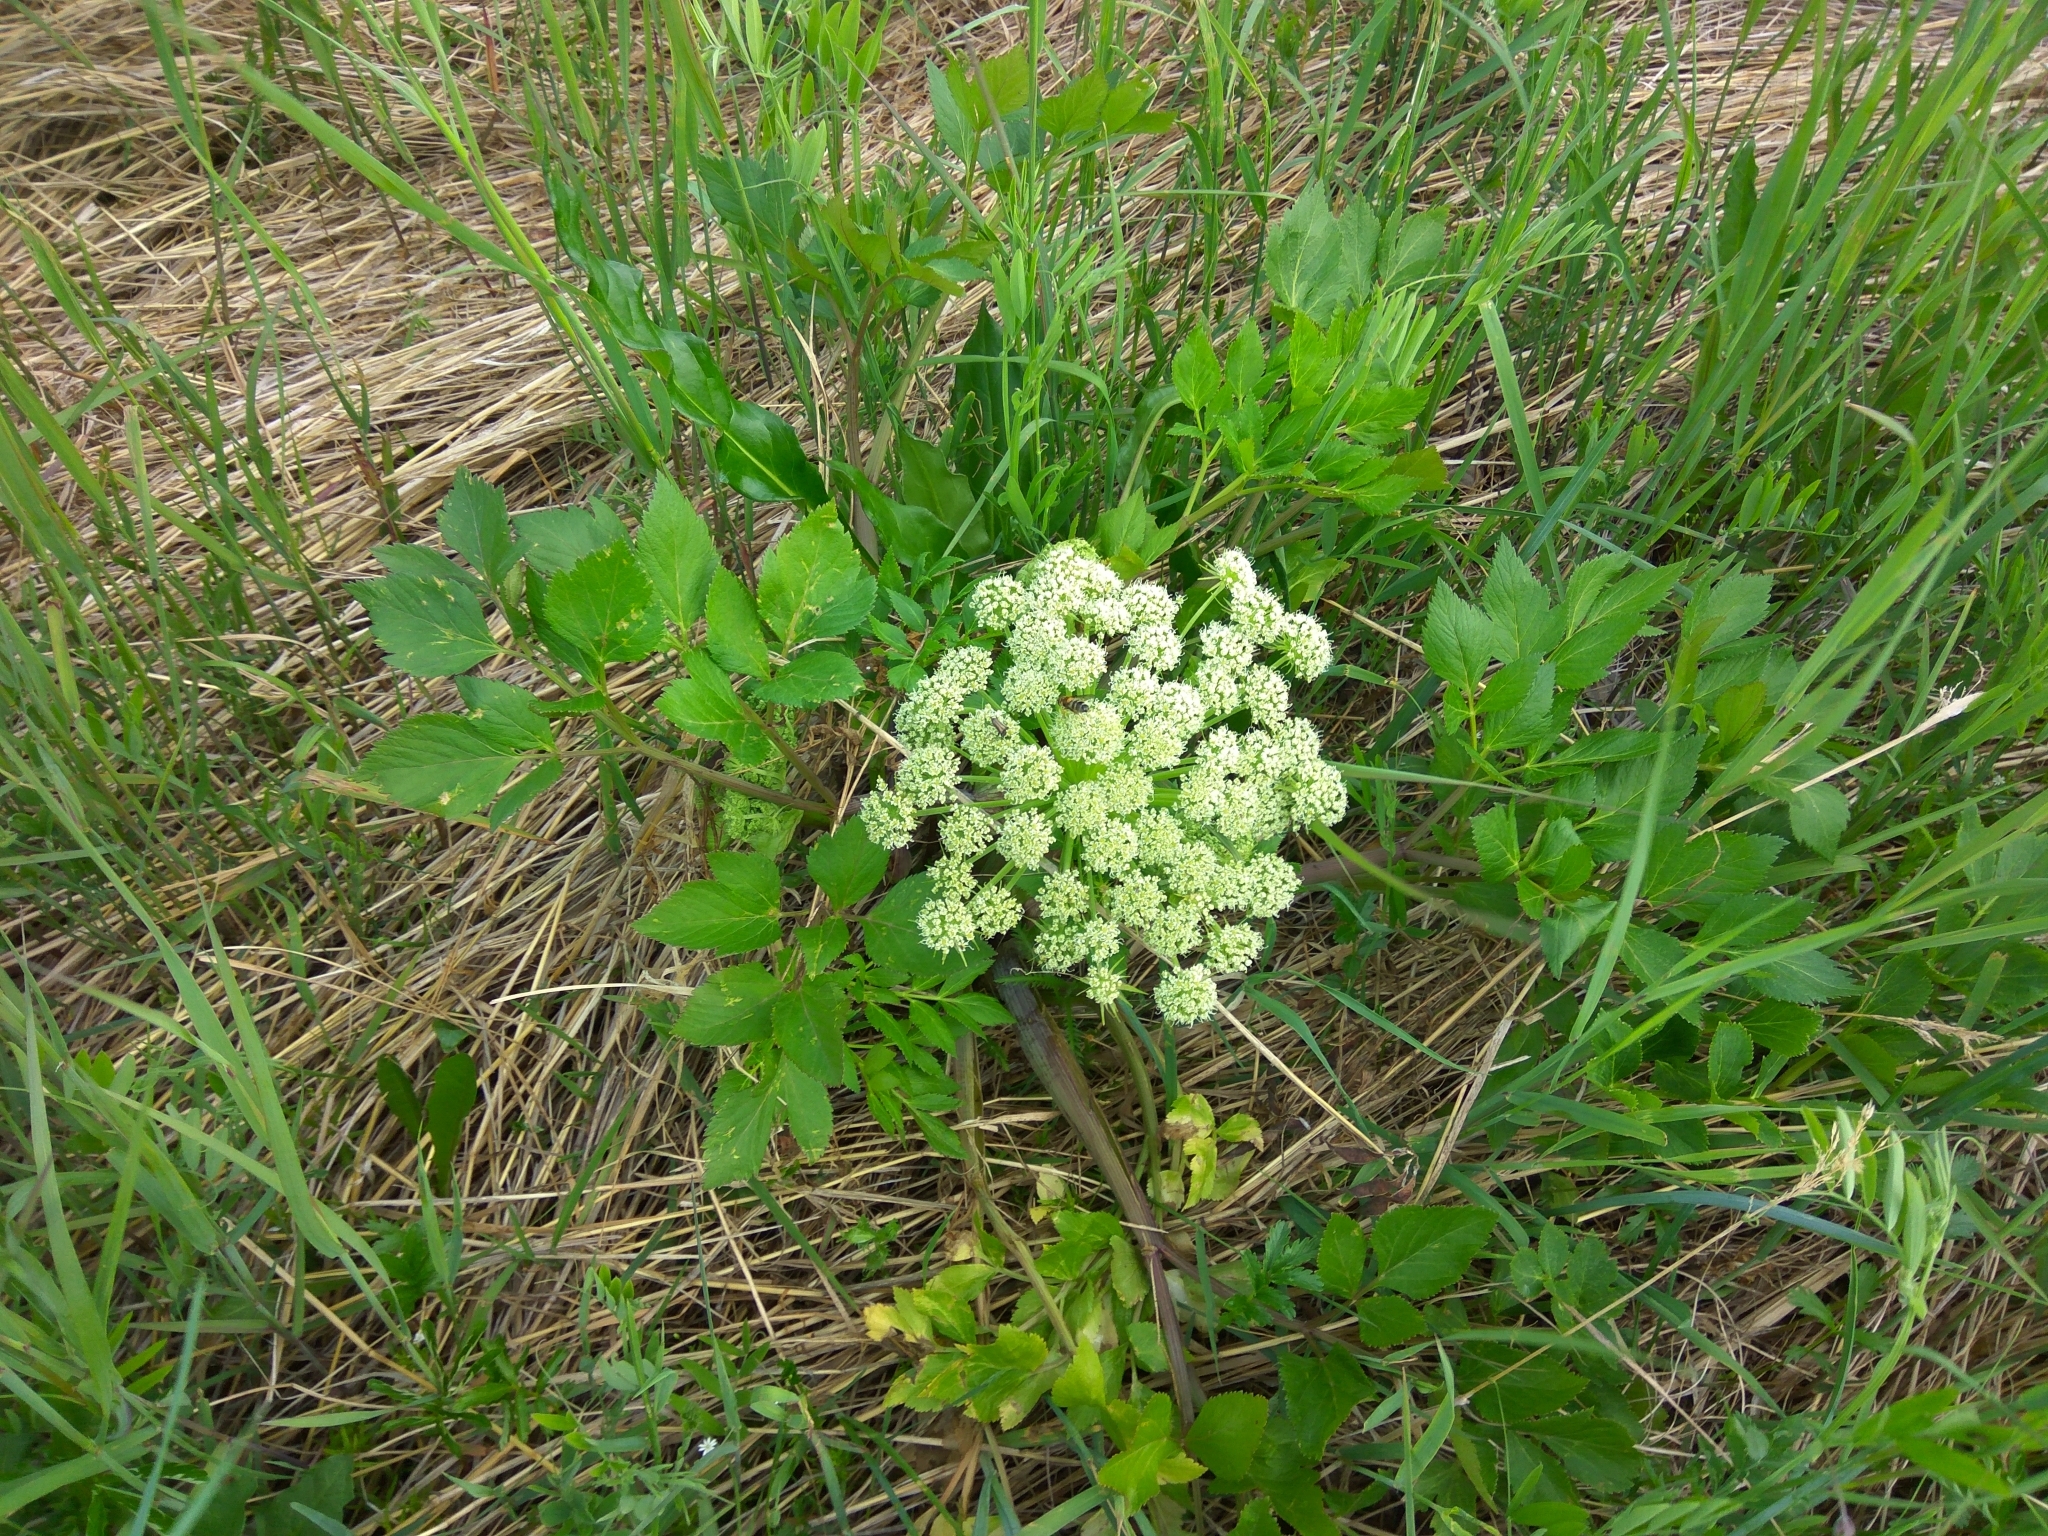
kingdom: Plantae
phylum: Tracheophyta
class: Magnoliopsida
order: Apiales
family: Apiaceae
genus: Angelica
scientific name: Angelica gmelinii
